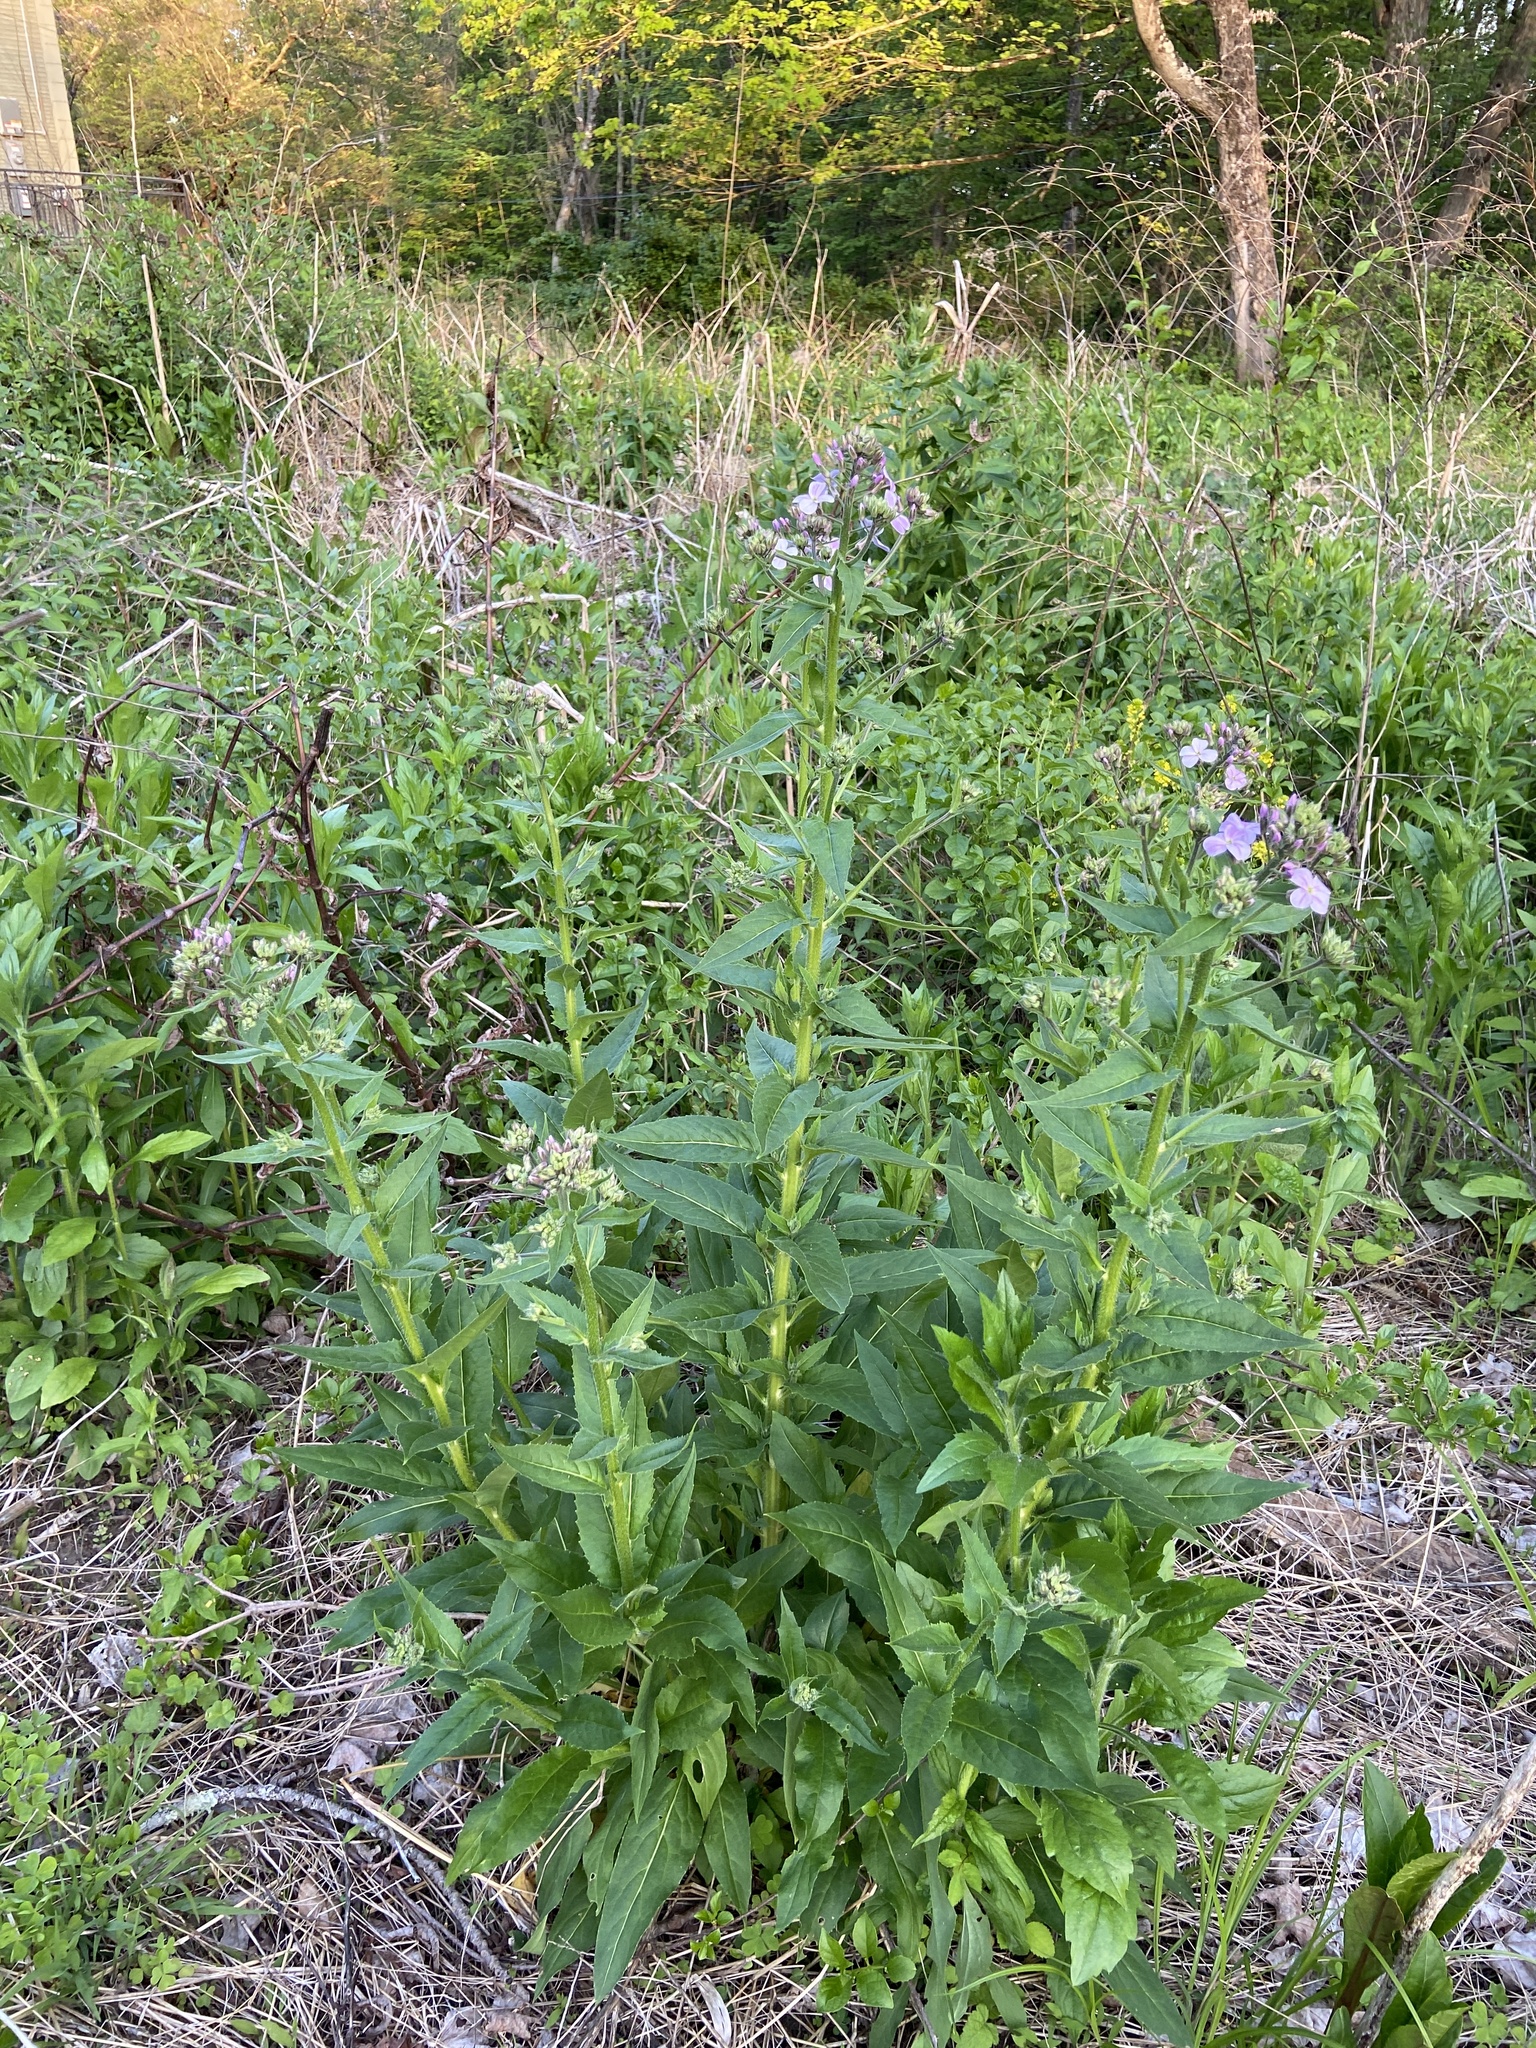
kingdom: Plantae
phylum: Tracheophyta
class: Magnoliopsida
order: Brassicales
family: Brassicaceae
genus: Hesperis
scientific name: Hesperis matronalis
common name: Dame's-violet
